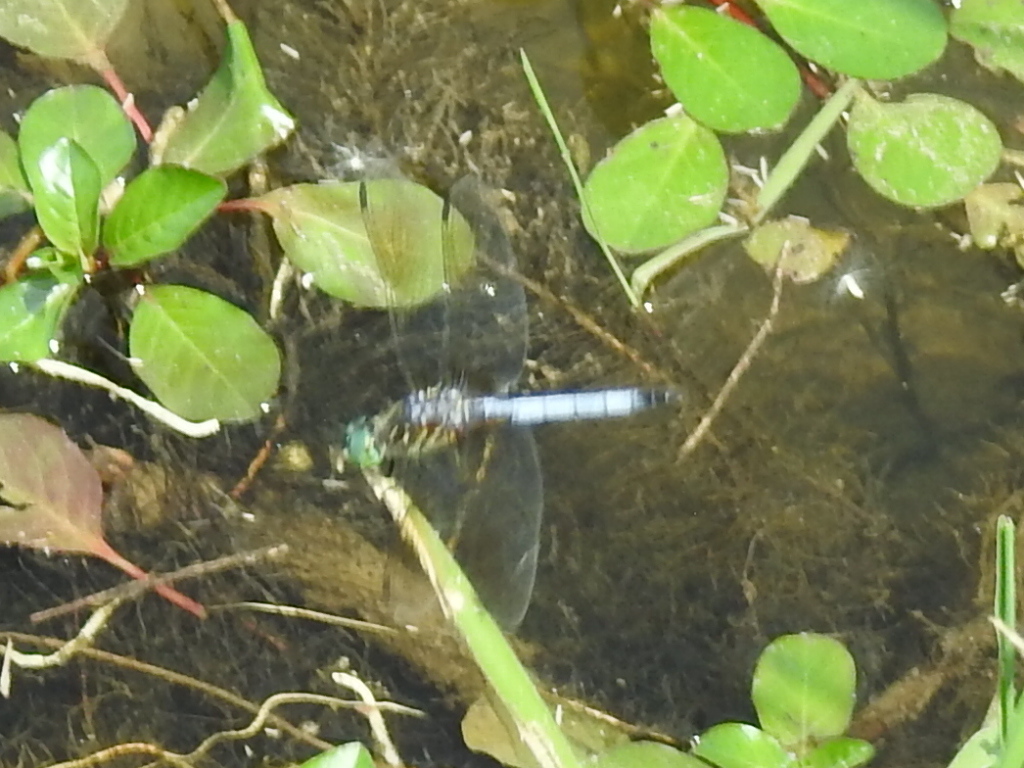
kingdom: Animalia
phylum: Arthropoda
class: Insecta
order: Odonata
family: Libellulidae
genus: Pachydiplax
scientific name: Pachydiplax longipennis
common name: Blue dasher
